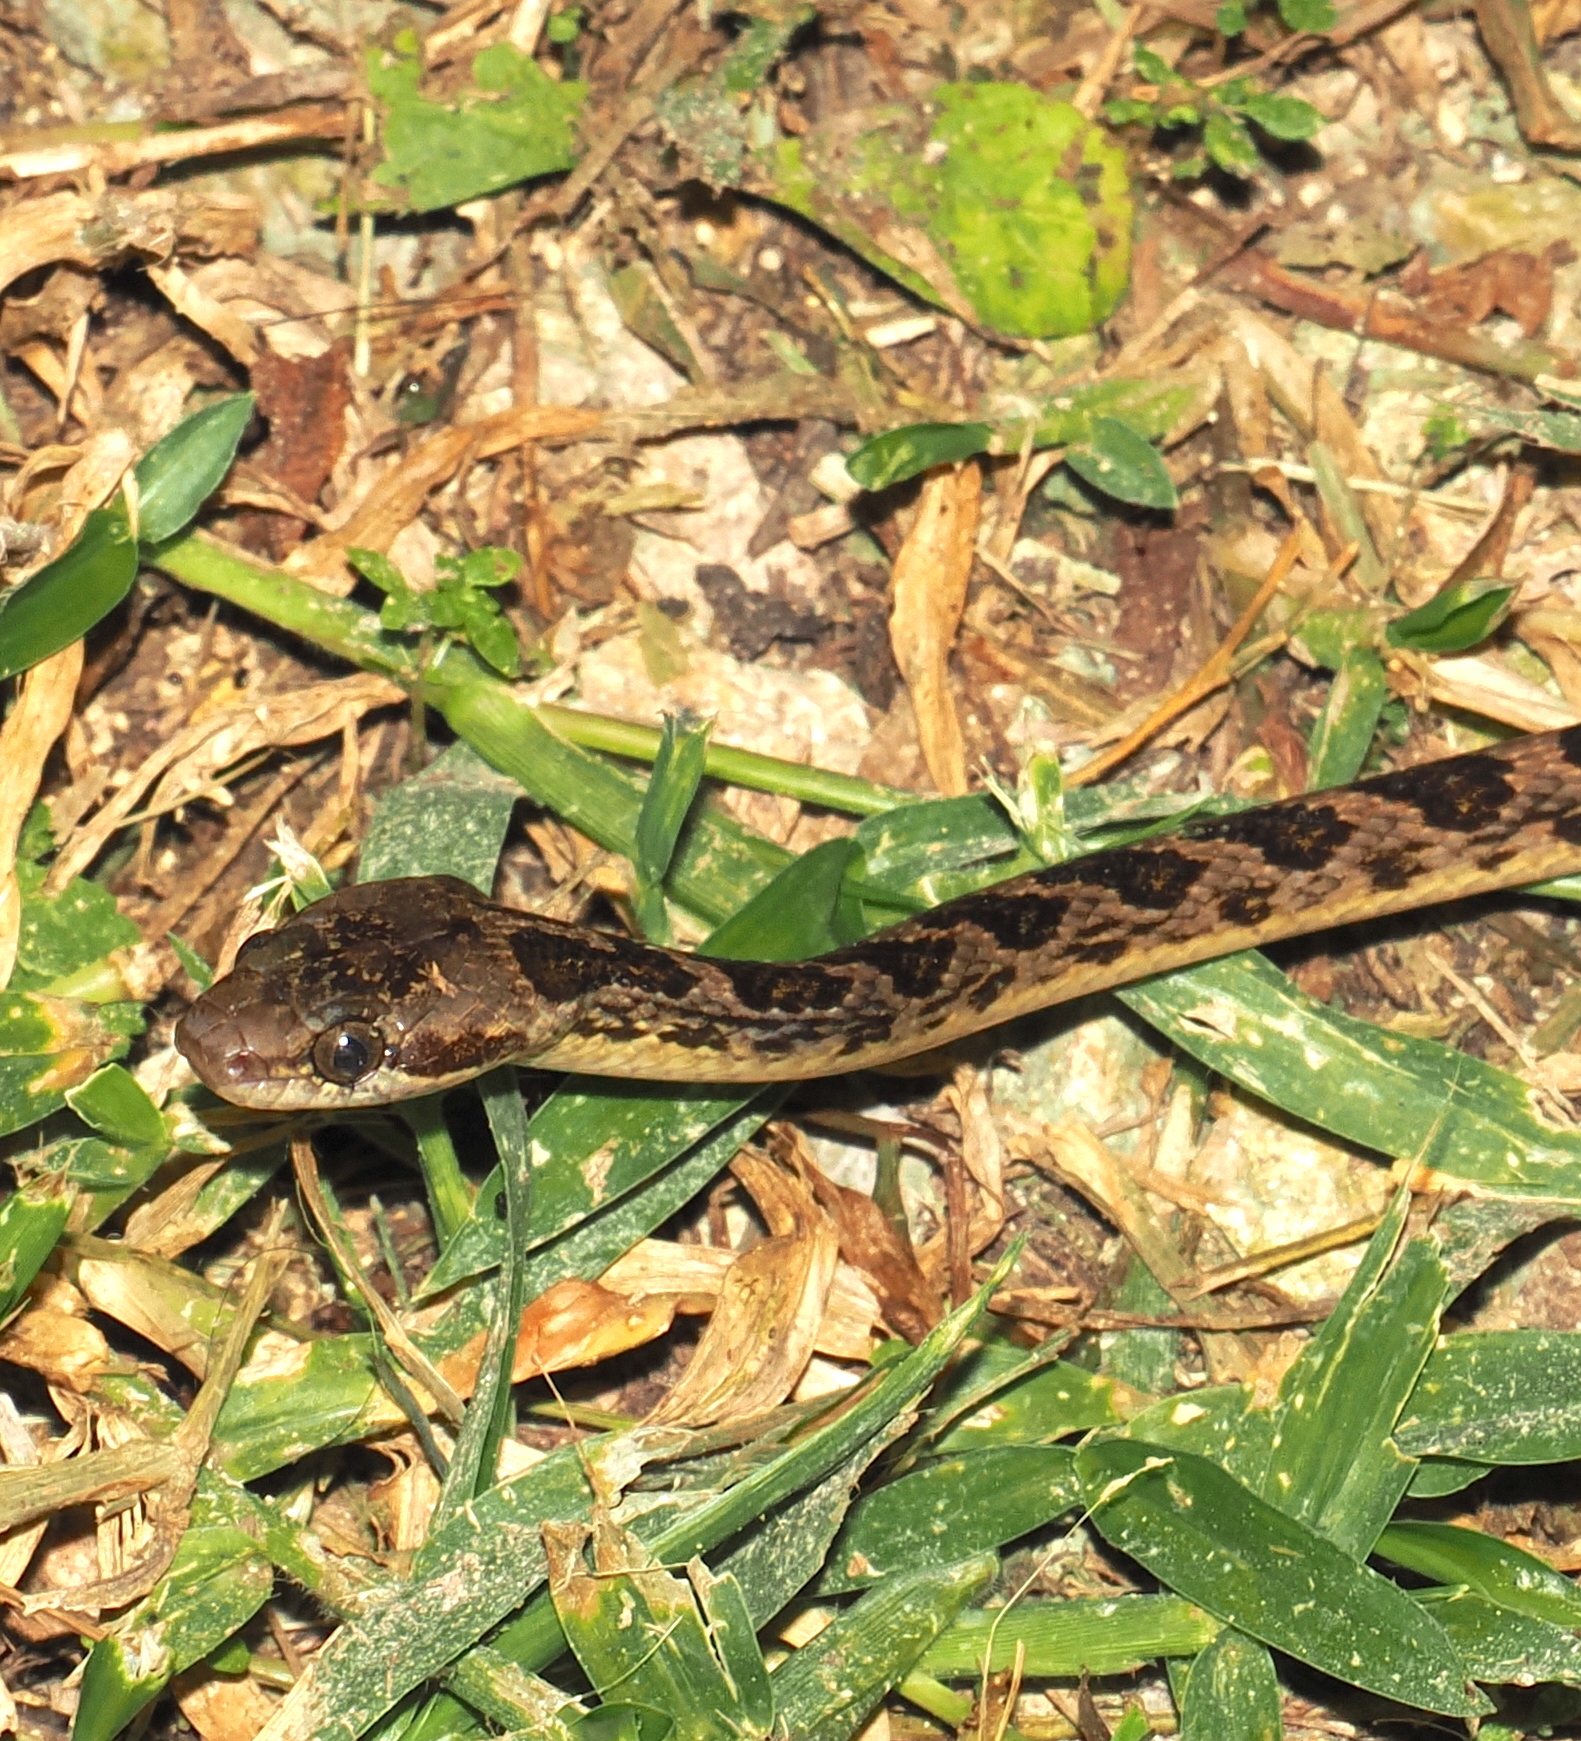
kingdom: Animalia
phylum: Chordata
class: Squamata
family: Colubridae
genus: Leptodeira
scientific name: Leptodeira ashmeadii
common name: Banded cat-eyed snake
